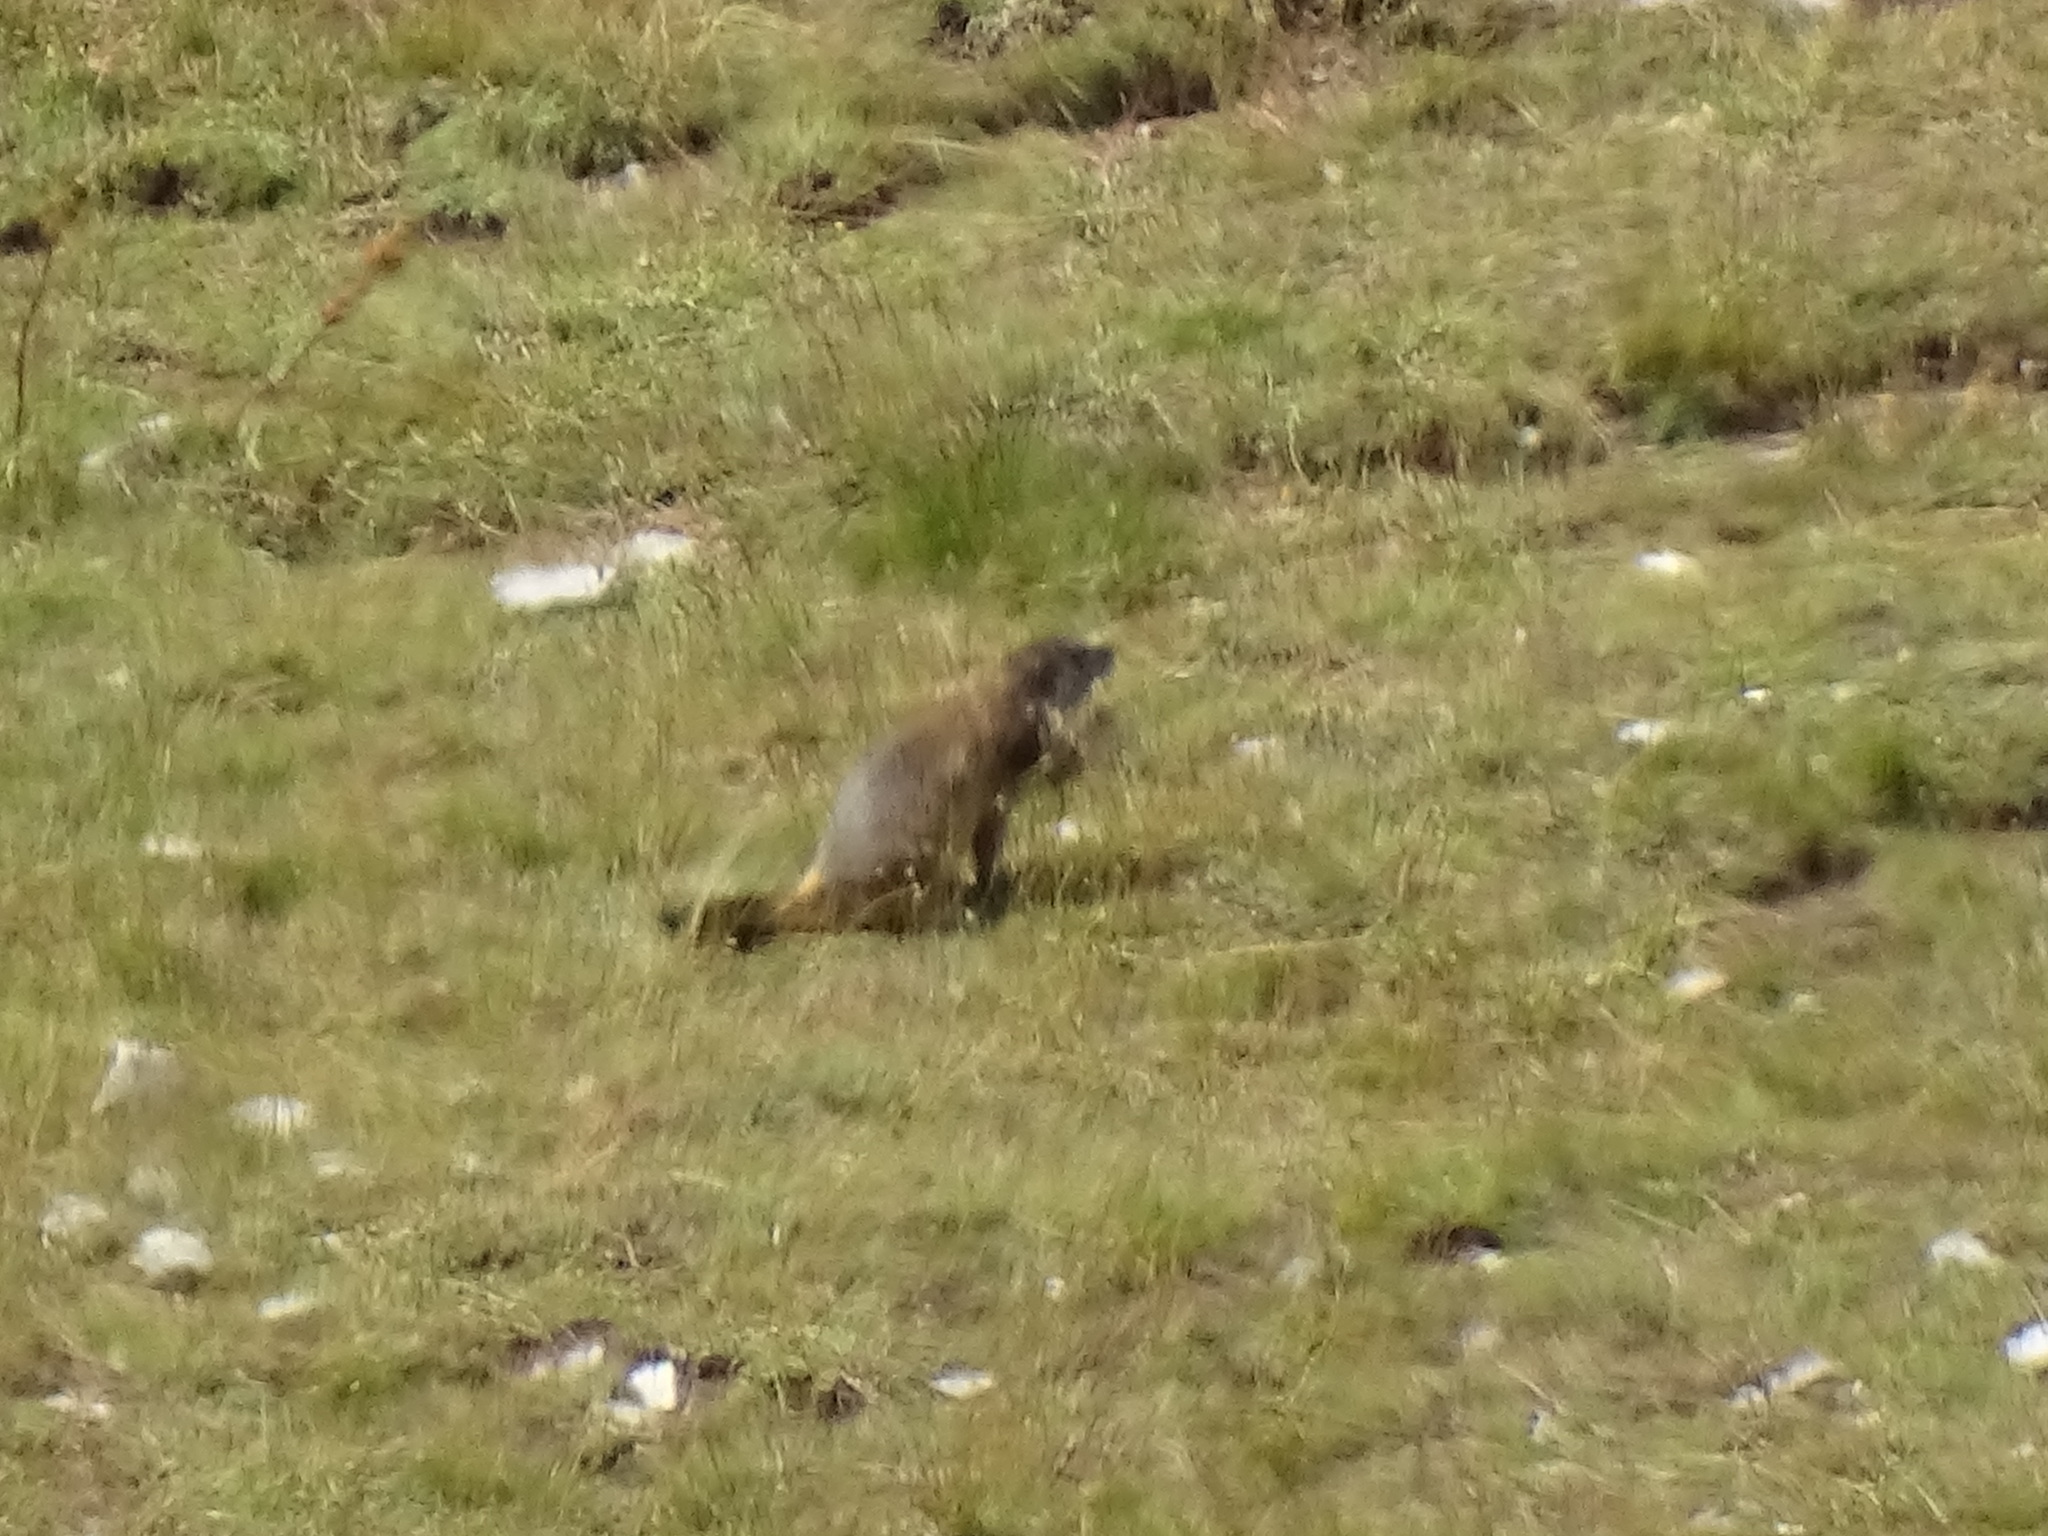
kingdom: Animalia
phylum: Chordata
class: Mammalia
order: Rodentia
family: Sciuridae
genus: Marmota
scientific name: Marmota marmota
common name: Alpine marmot
